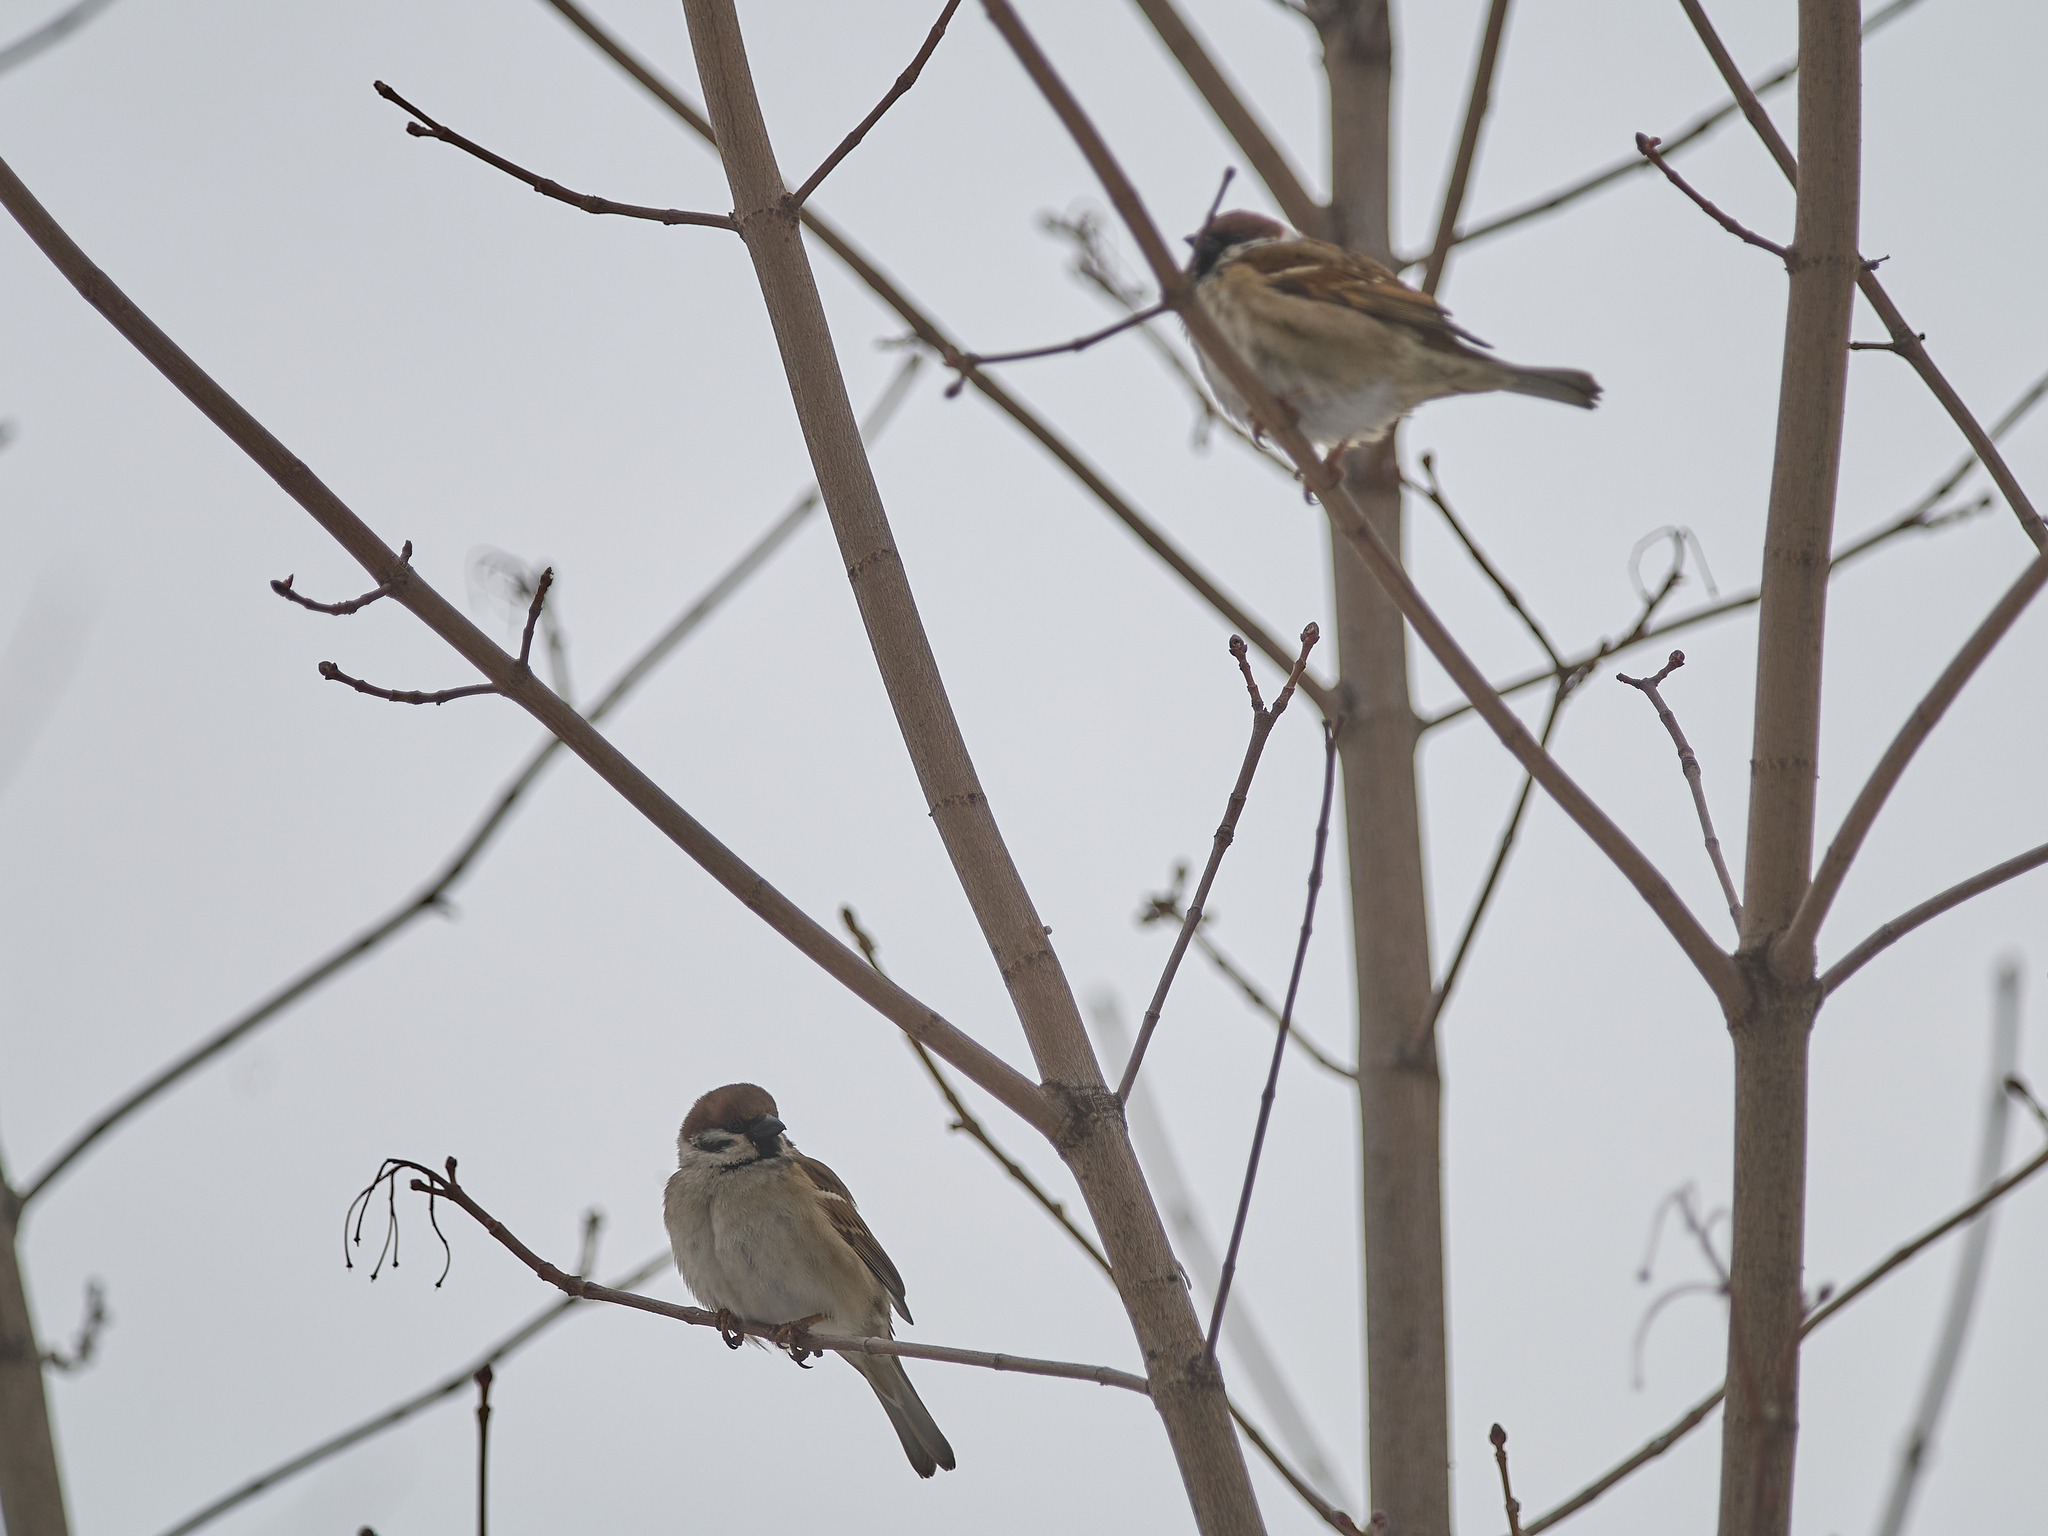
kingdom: Animalia
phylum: Chordata
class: Aves
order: Passeriformes
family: Passeridae
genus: Passer
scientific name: Passer montanus
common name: Eurasian tree sparrow
